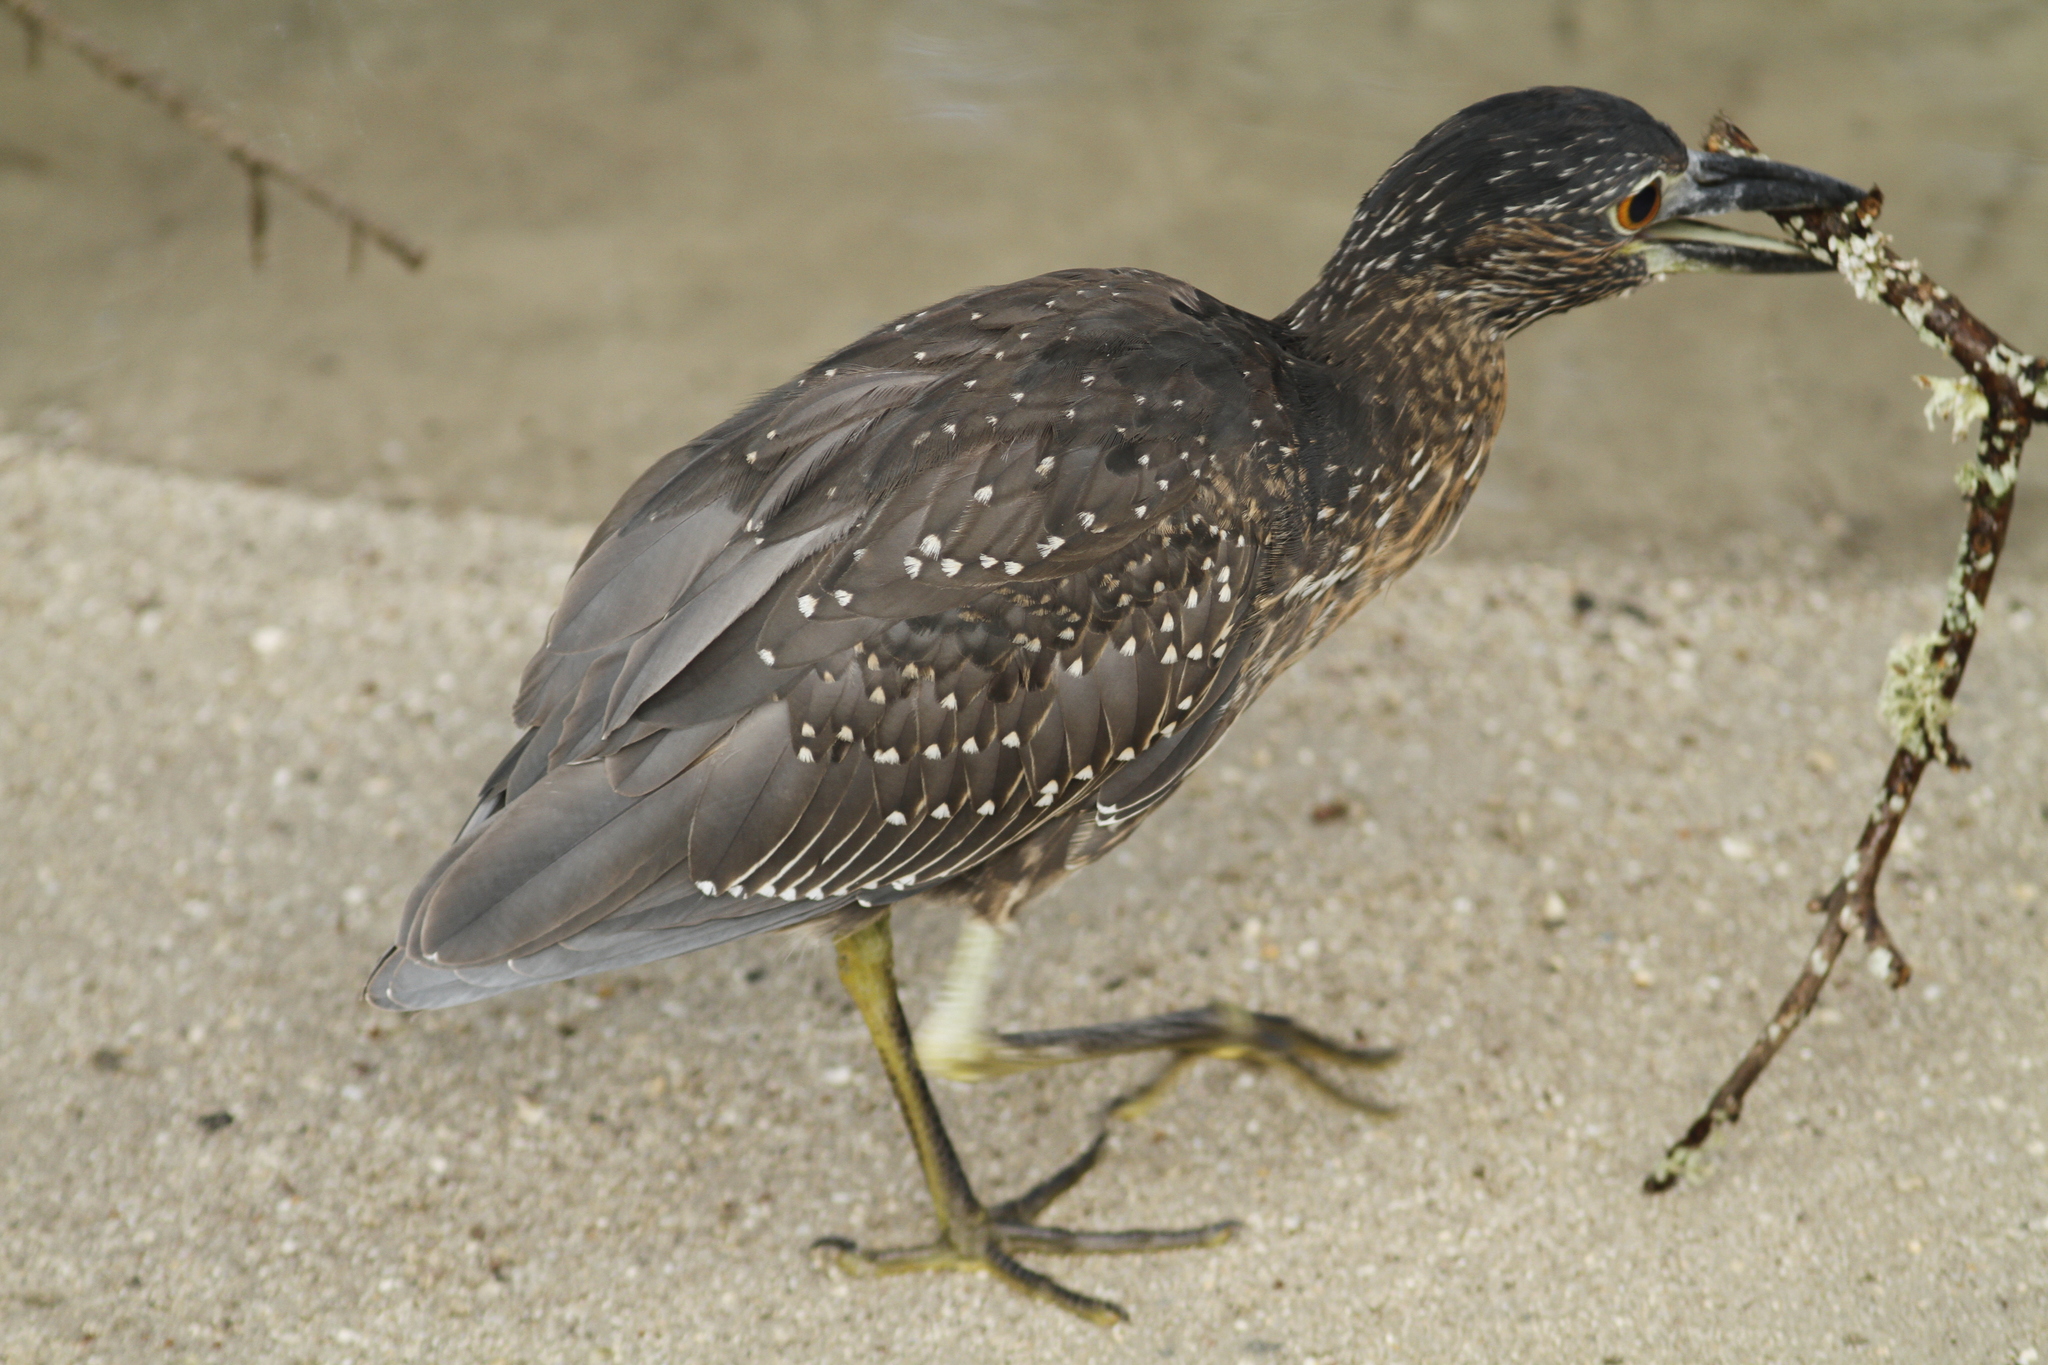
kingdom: Animalia
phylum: Chordata
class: Aves
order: Pelecaniformes
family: Ardeidae
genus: Nyctanassa
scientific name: Nyctanassa violacea
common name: Yellow-crowned night heron
